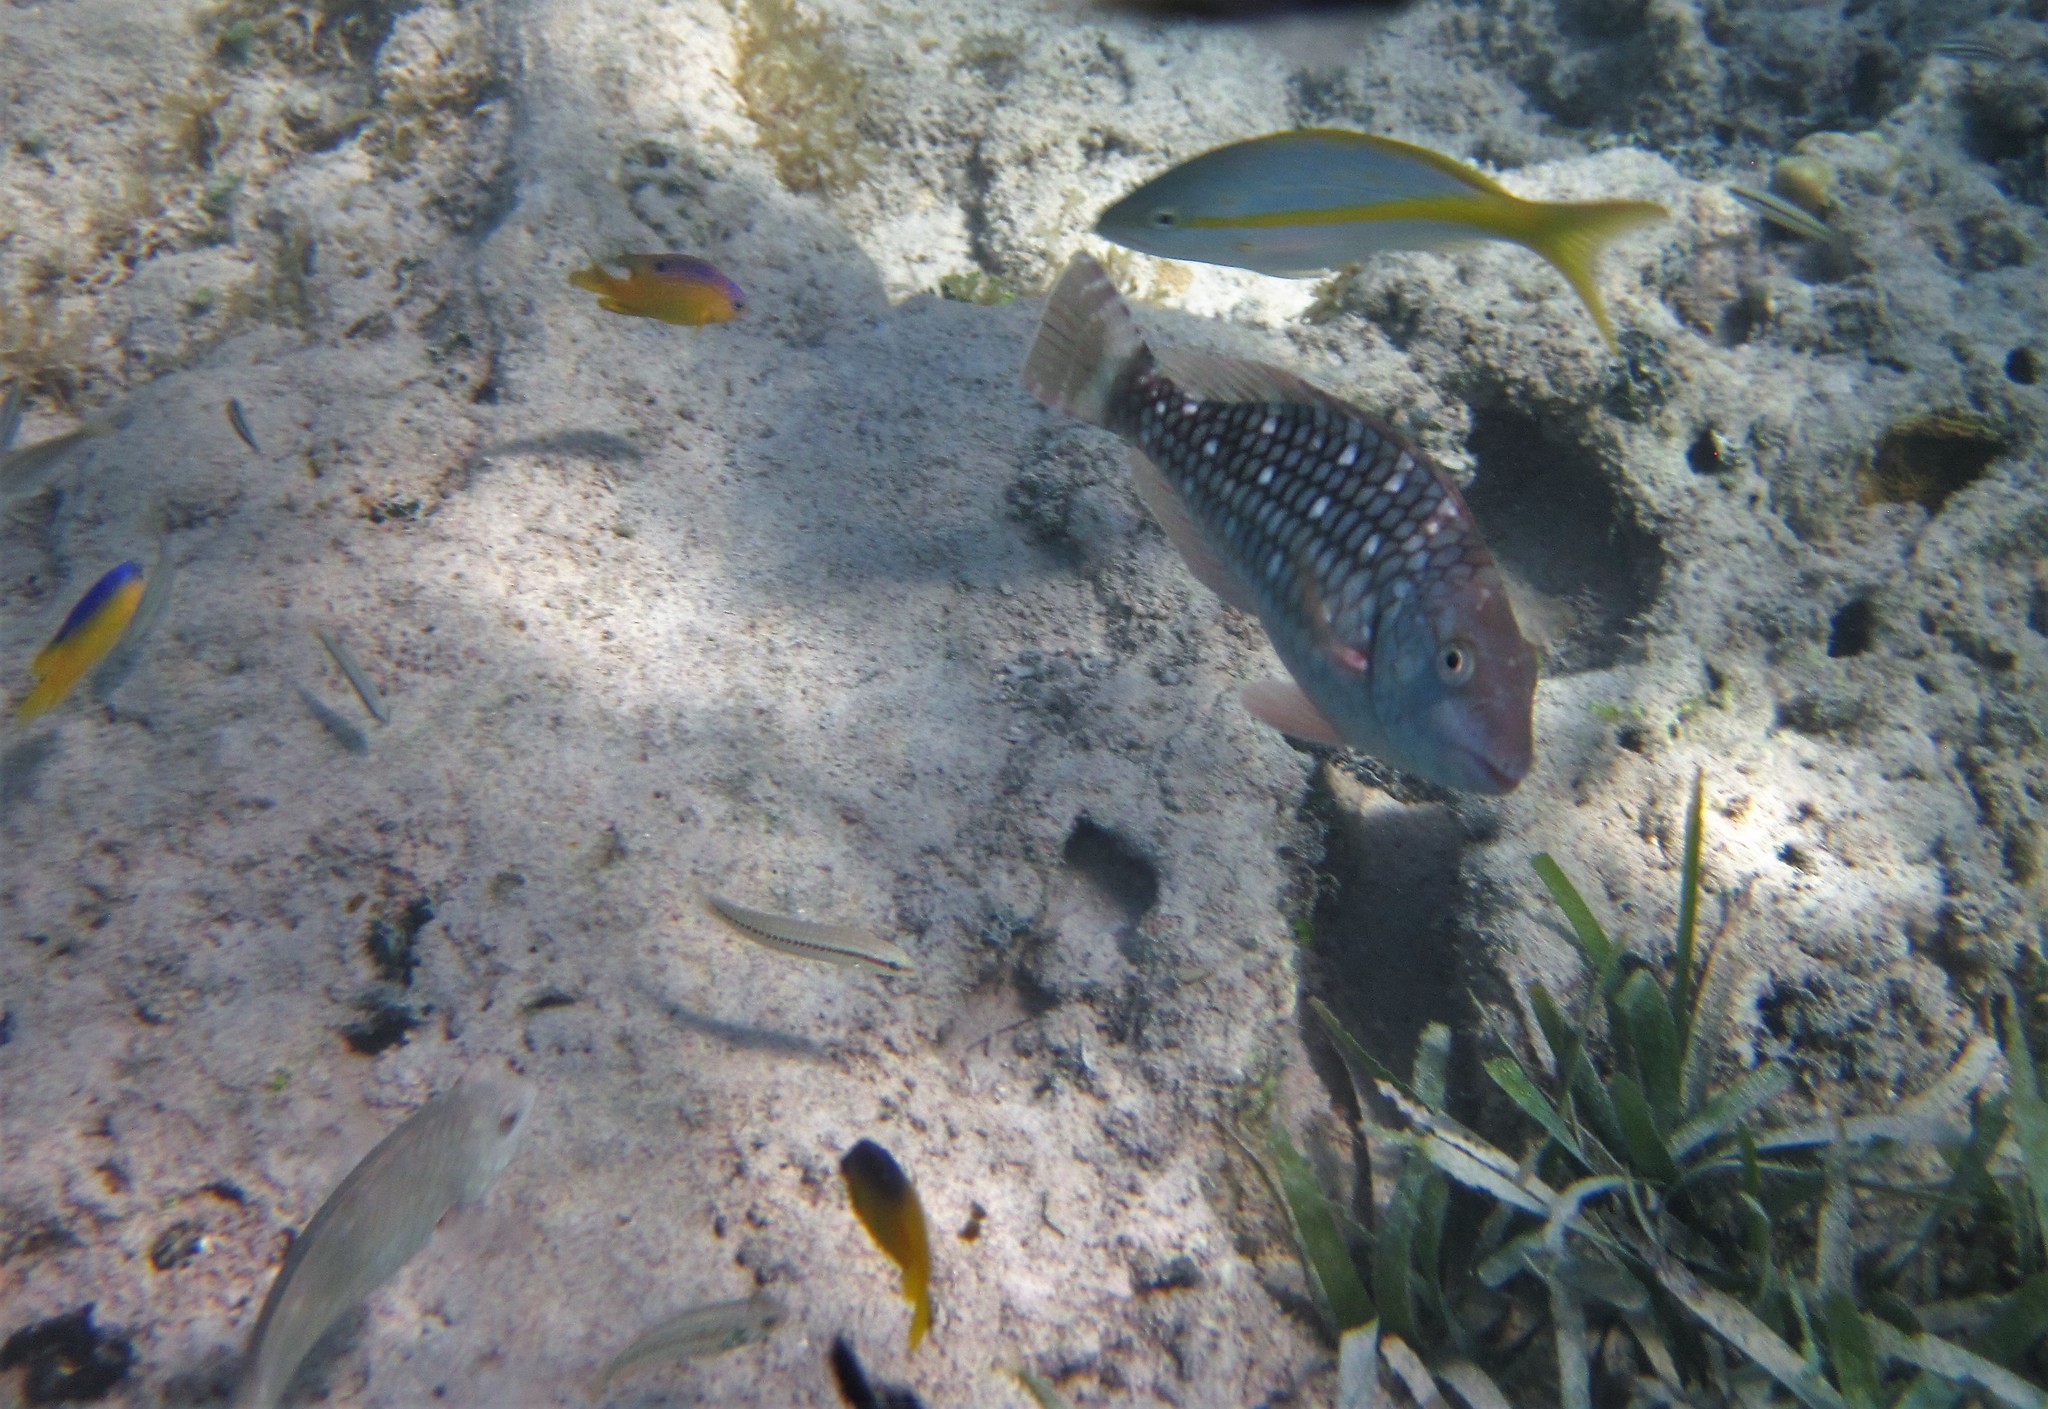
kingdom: Animalia
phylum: Chordata
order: Perciformes
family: Scaridae
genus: Sparisoma
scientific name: Sparisoma viride
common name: Stoplight parrotfish
